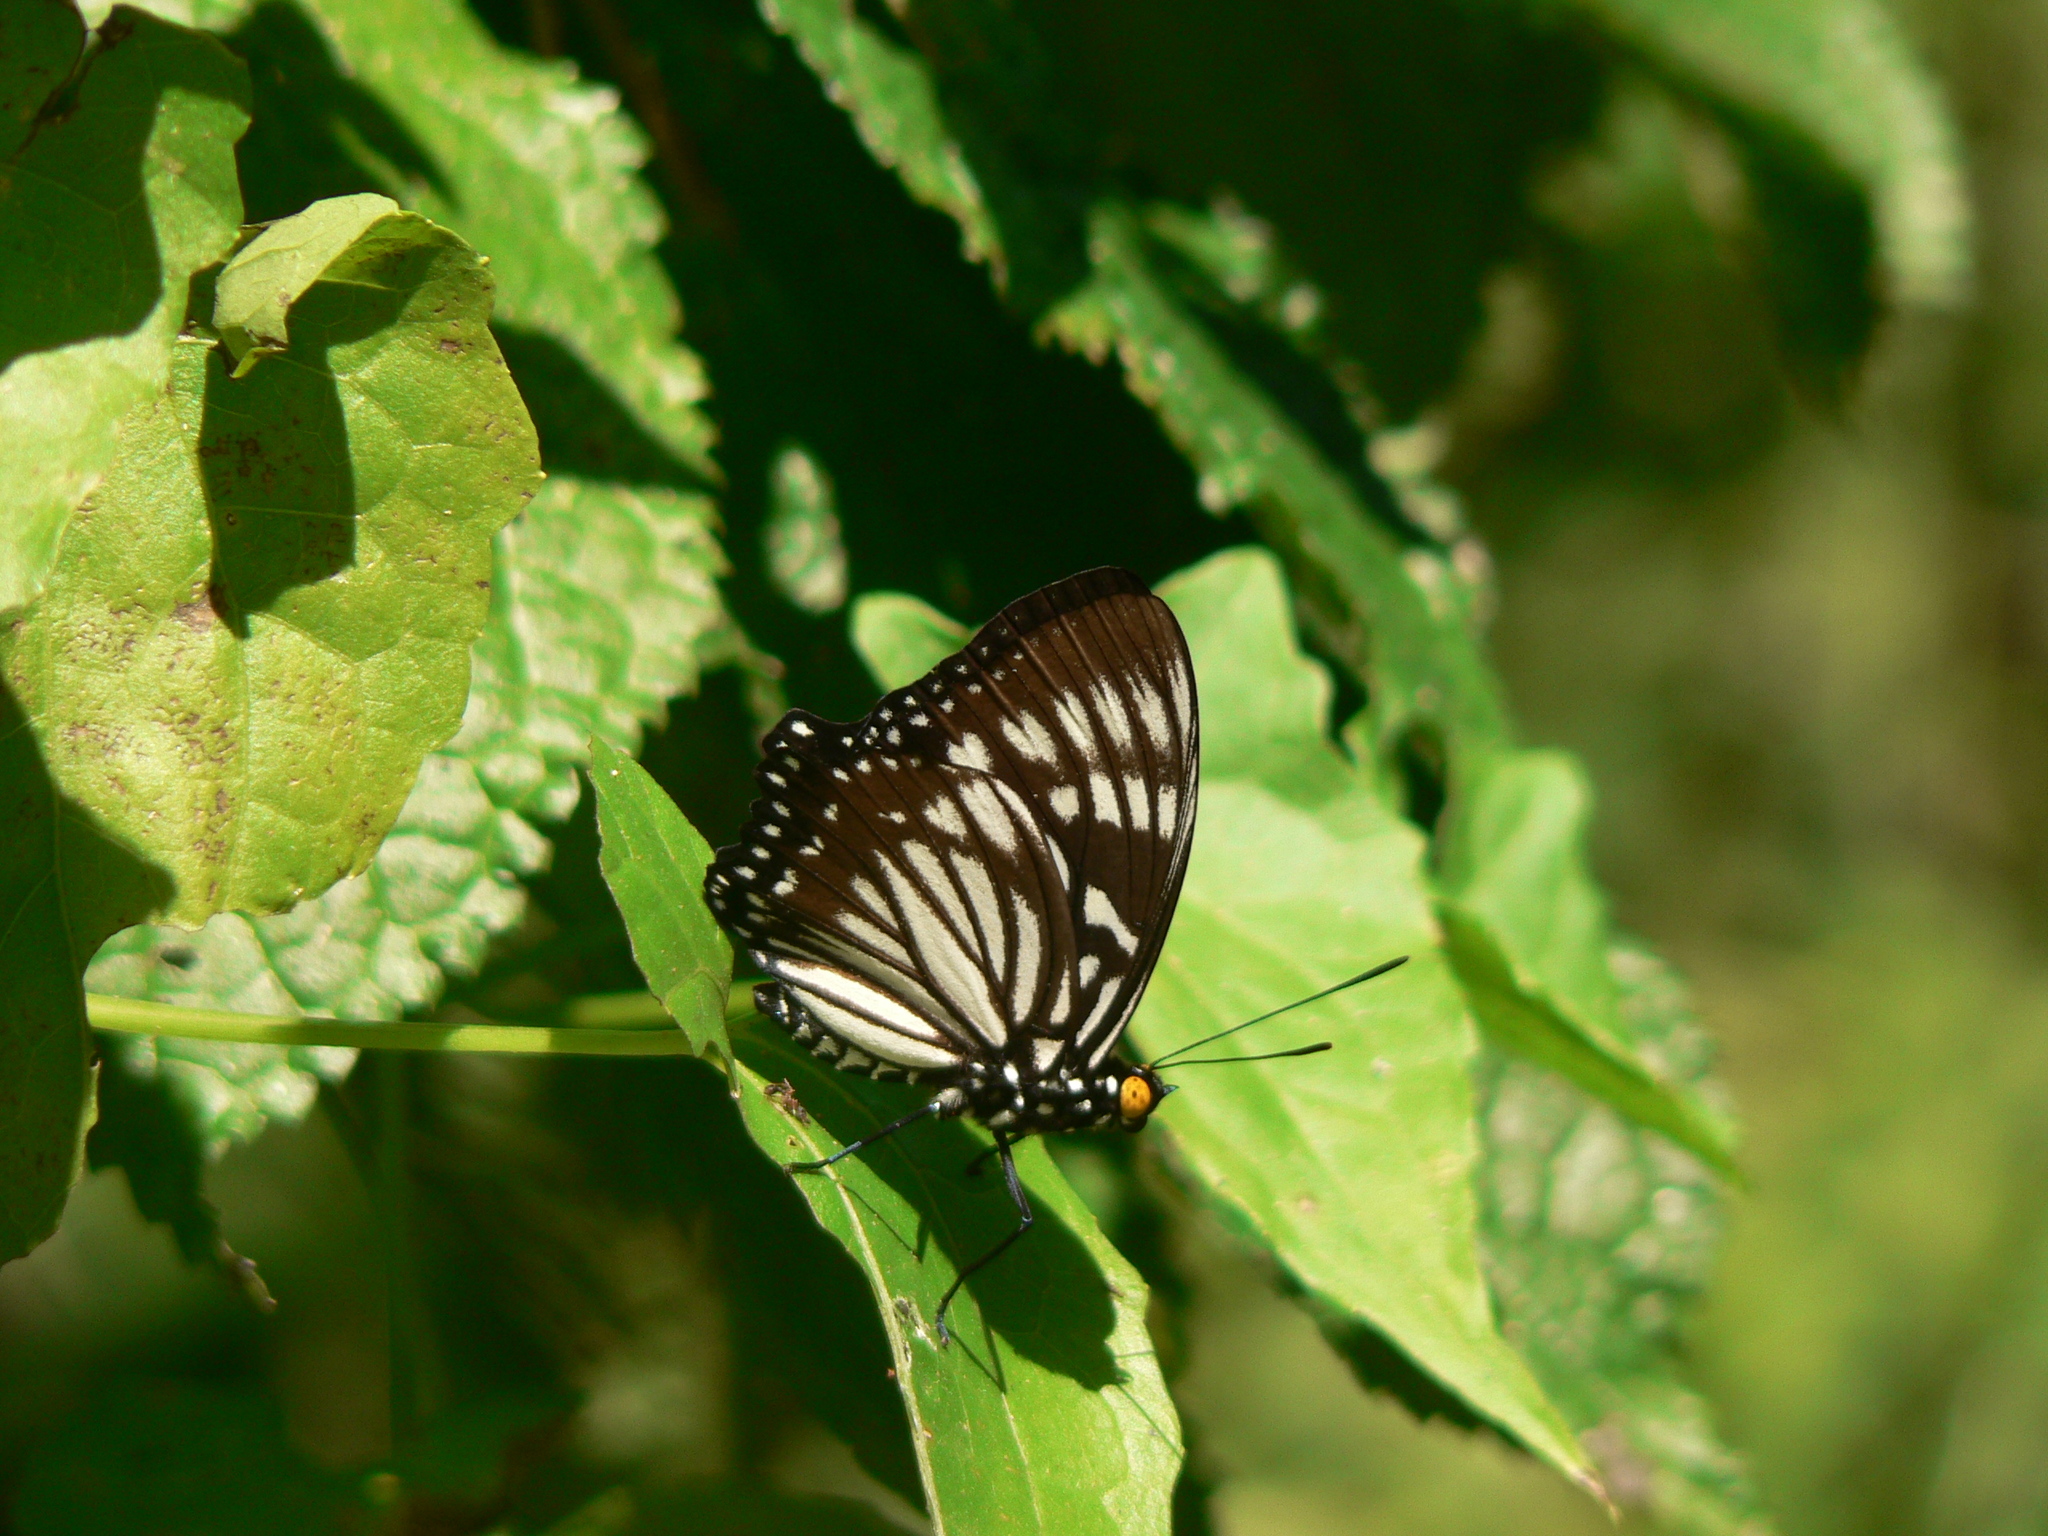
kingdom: Animalia
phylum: Arthropoda
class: Insecta
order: Lepidoptera
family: Nymphalidae
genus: Euripus
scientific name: Euripus nyctelius
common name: Courtesan
